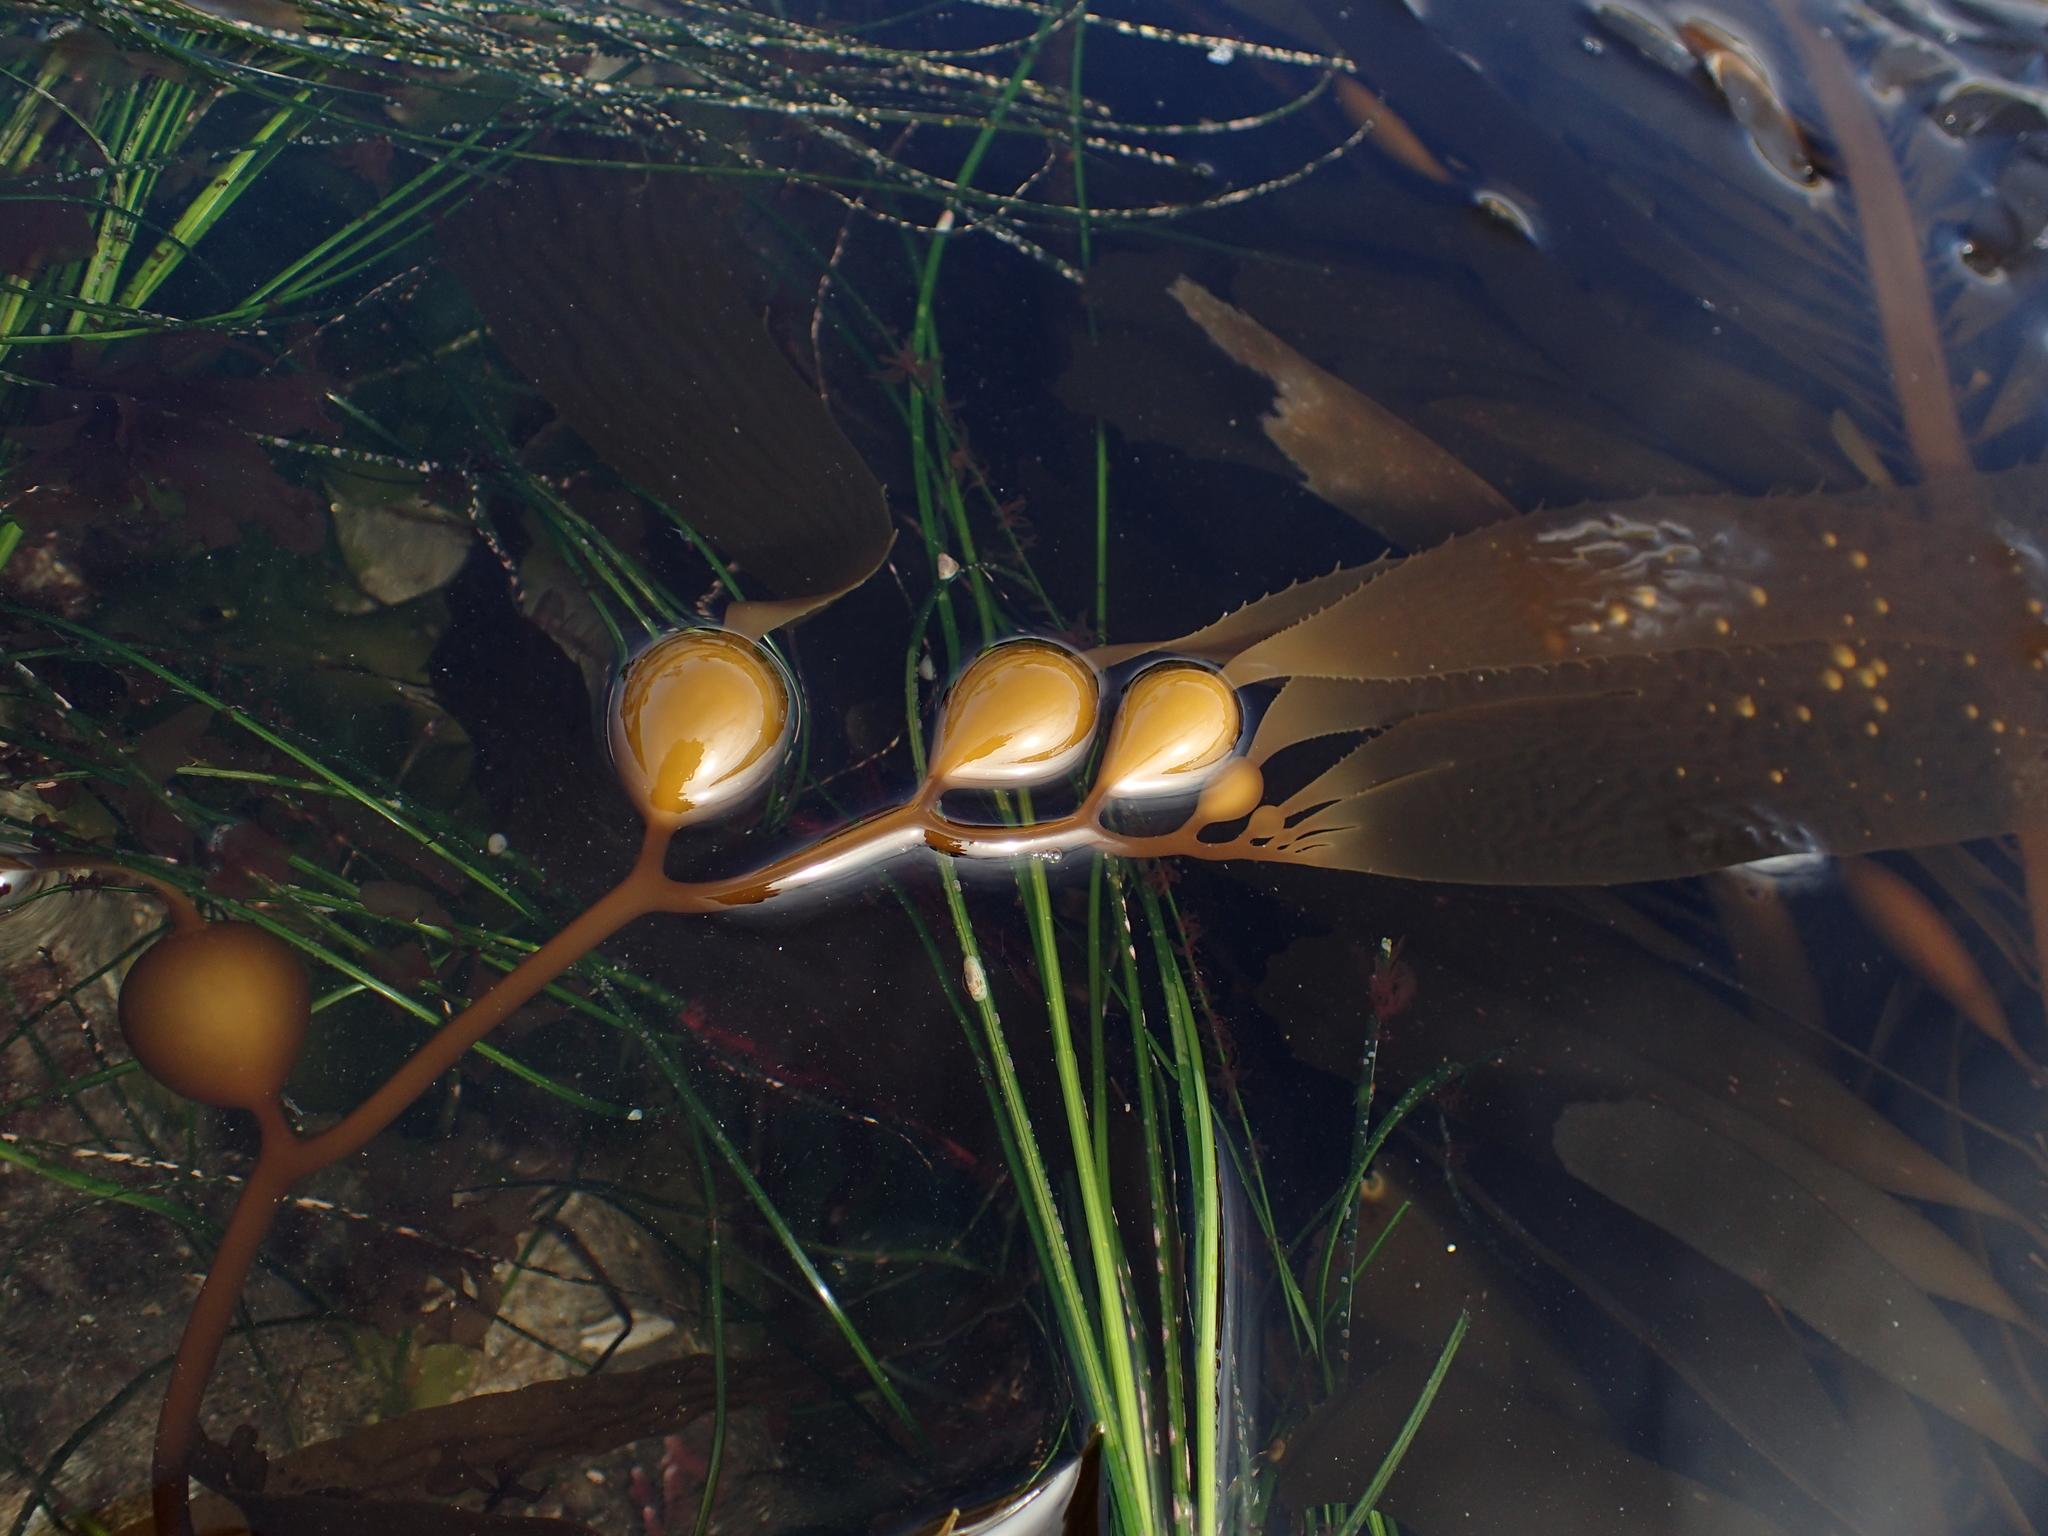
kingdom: Chromista
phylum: Ochrophyta
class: Phaeophyceae
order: Laminariales
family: Laminariaceae
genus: Macrocystis
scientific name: Macrocystis pyrifera
